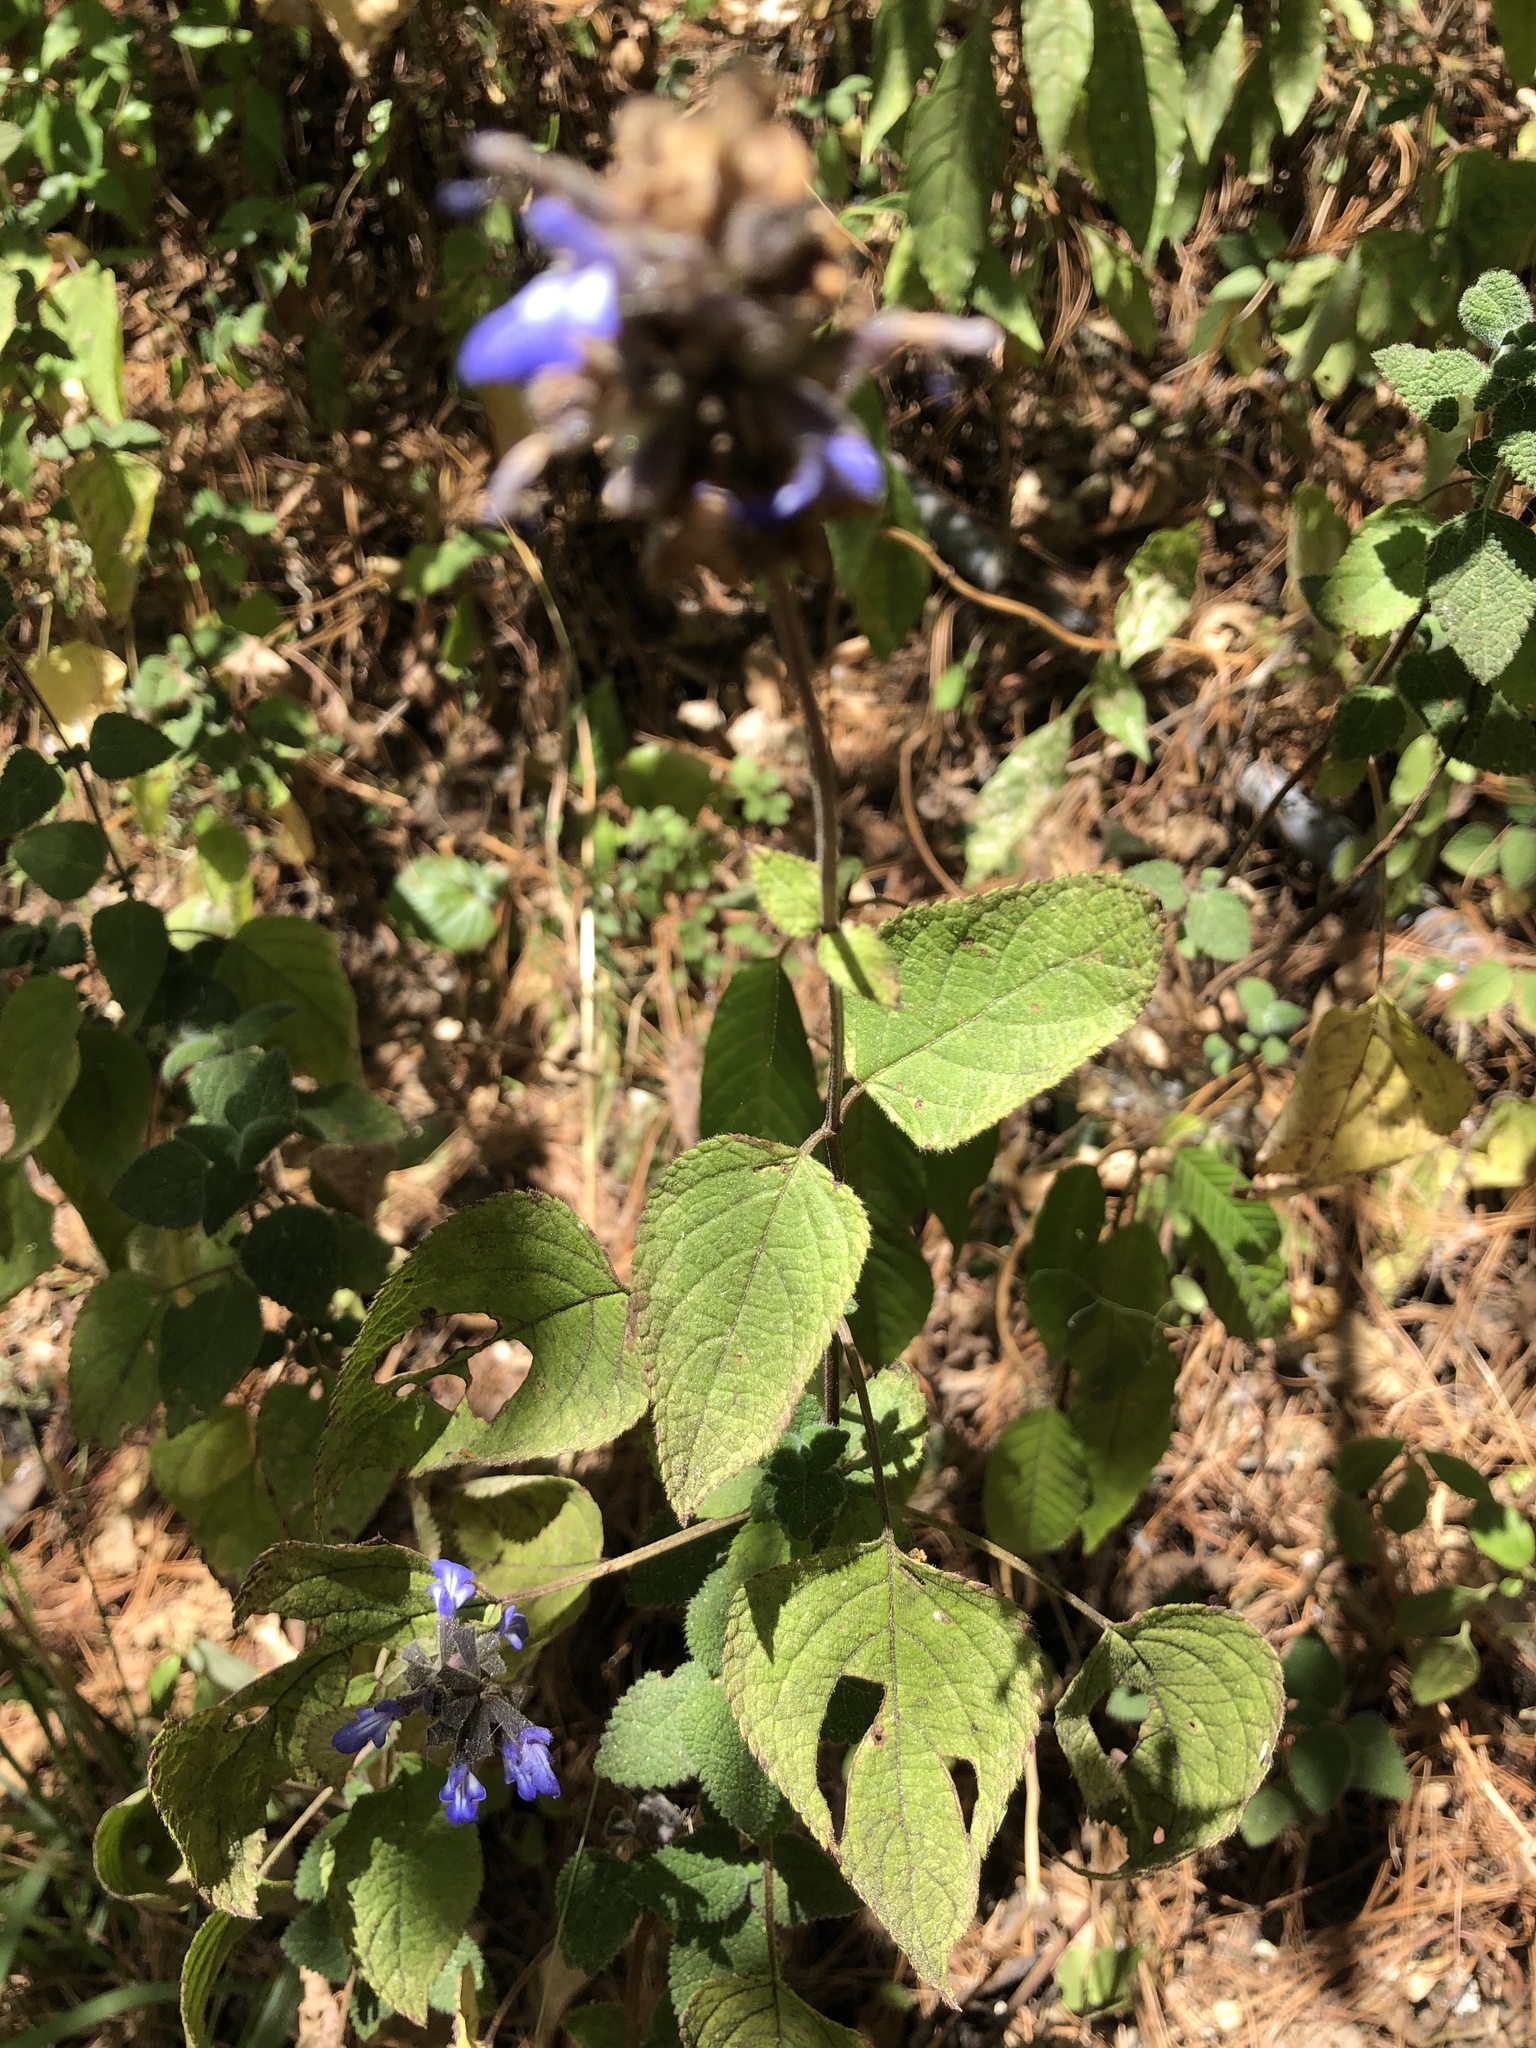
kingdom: Plantae
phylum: Tracheophyta
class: Magnoliopsida
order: Lamiales
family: Lamiaceae
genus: Salvia
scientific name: Salvia mocinoi
